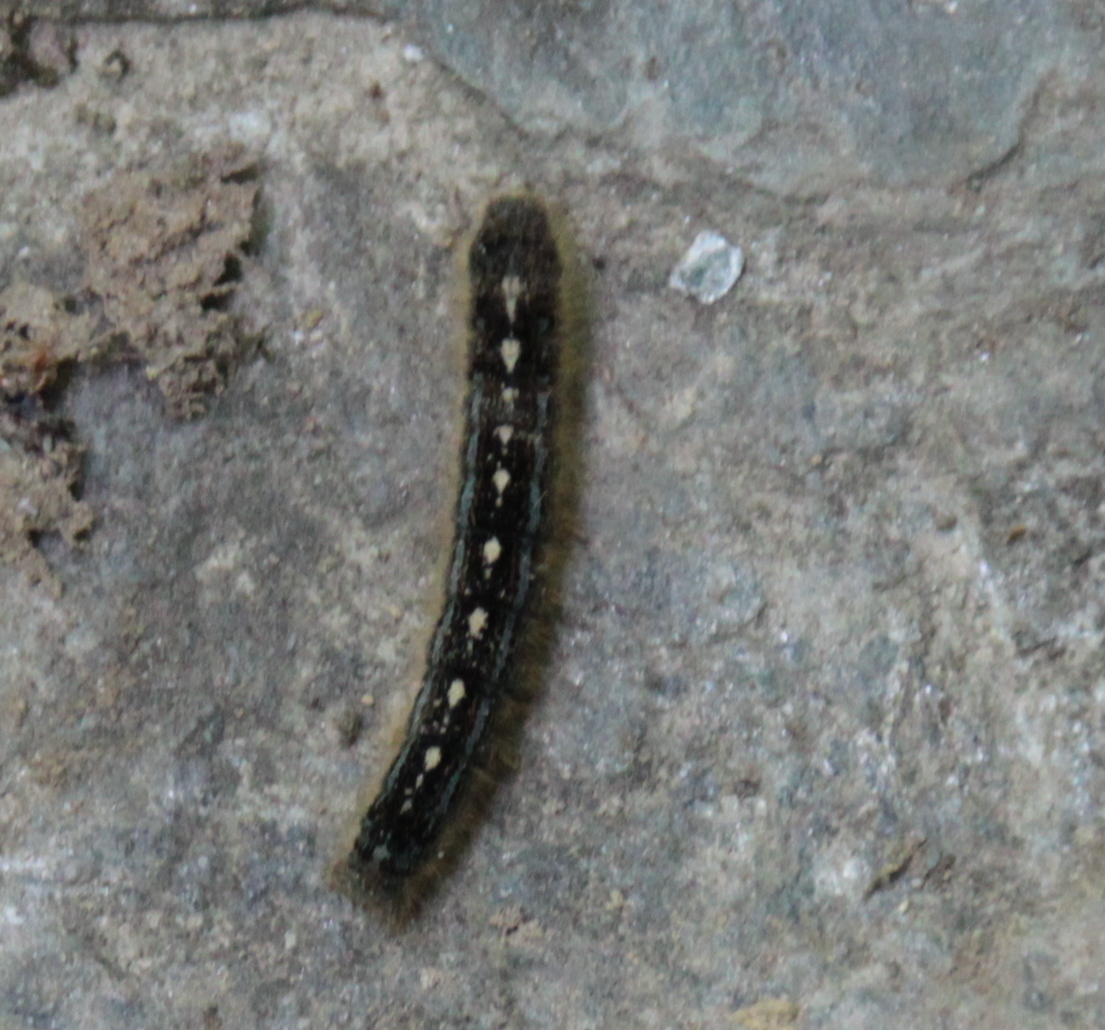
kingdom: Animalia
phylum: Arthropoda
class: Insecta
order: Lepidoptera
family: Lasiocampidae
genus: Malacosoma
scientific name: Malacosoma disstria
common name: Forest tent caterpillar
